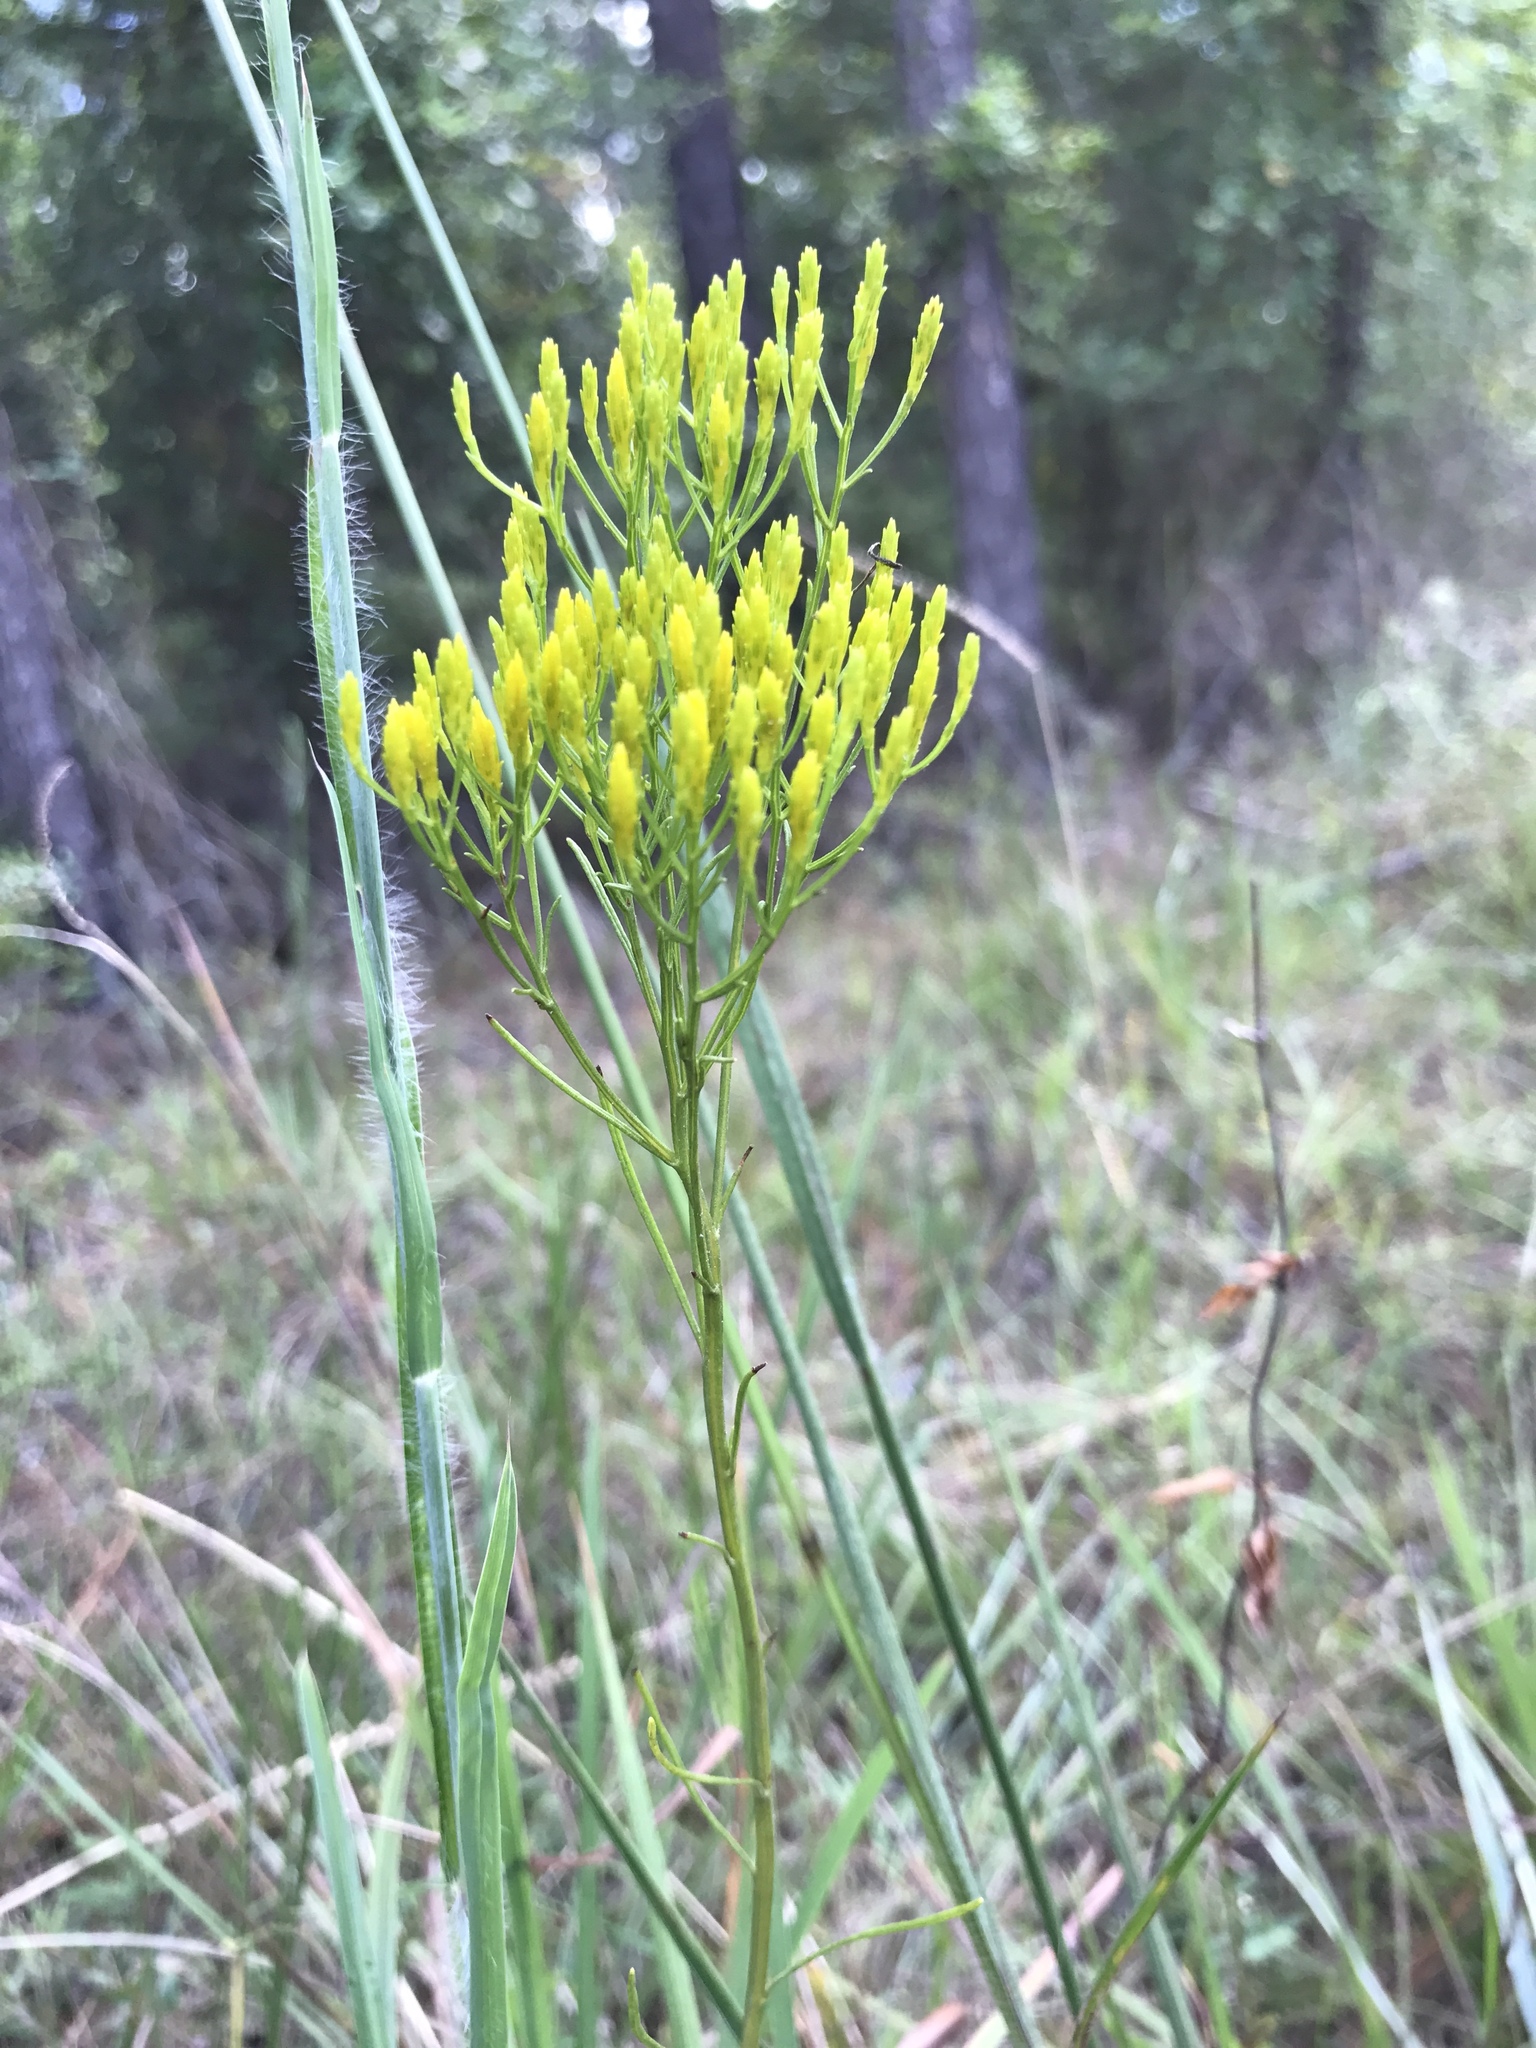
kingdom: Plantae
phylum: Tracheophyta
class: Magnoliopsida
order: Asterales
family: Asteraceae
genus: Bigelowia
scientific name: Bigelowia nuttallii
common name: Nuttall's rayless-goldenrod
